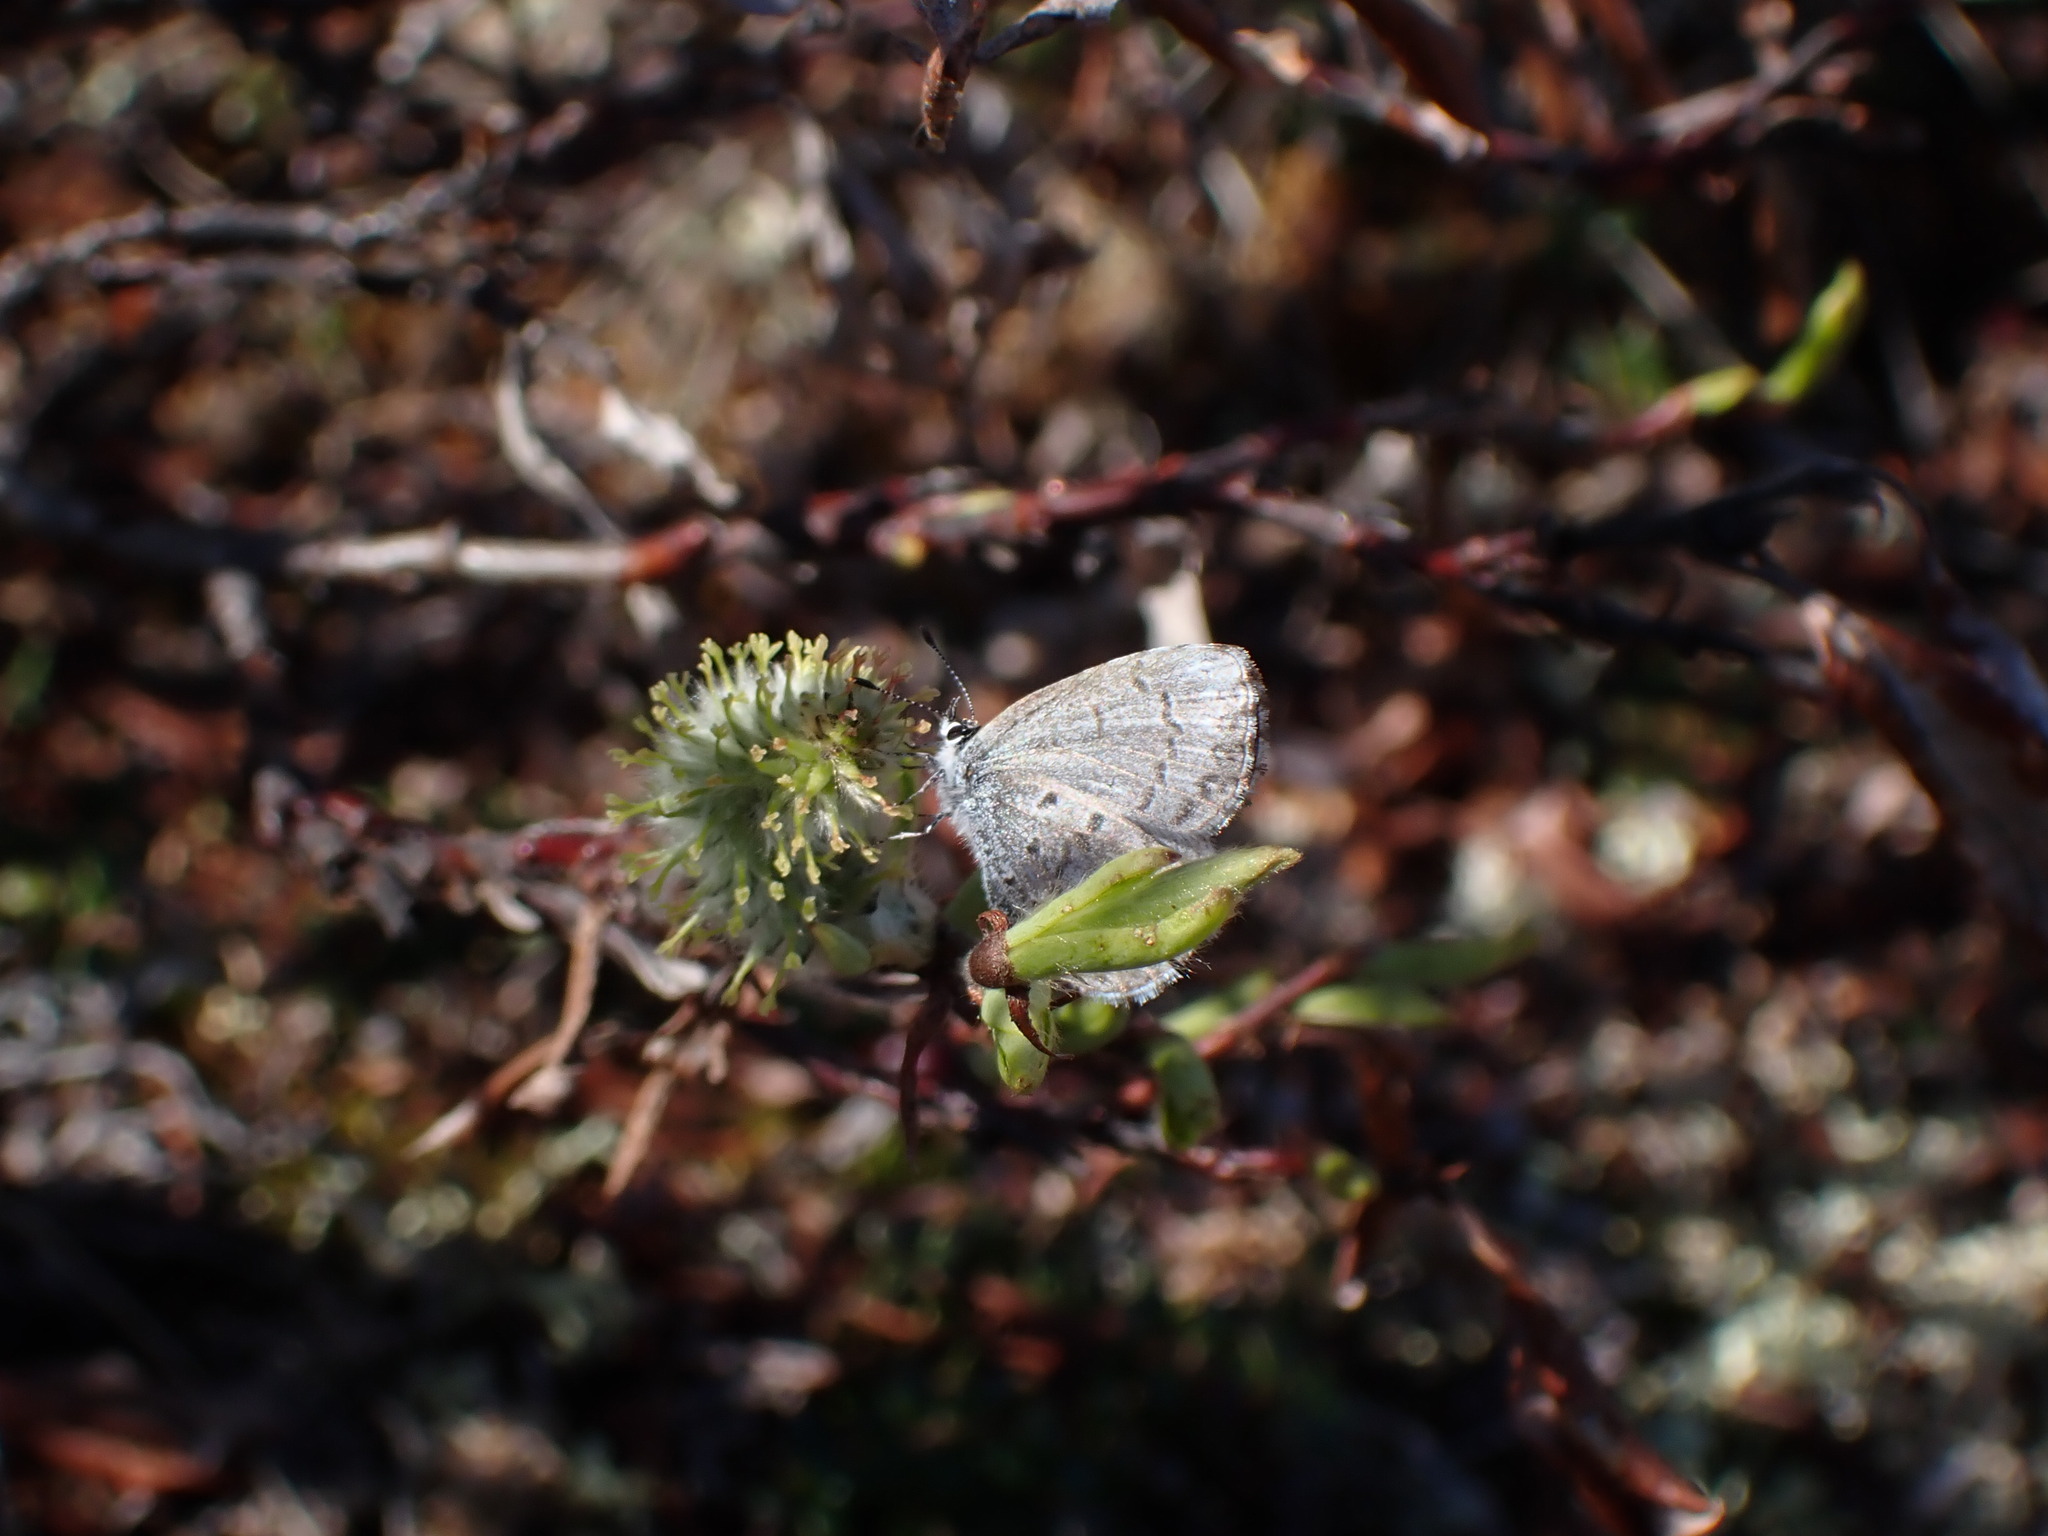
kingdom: Animalia
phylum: Arthropoda
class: Insecta
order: Lepidoptera
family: Lycaenidae
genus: Celastrina
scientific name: Celastrina lucia
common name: Lucia azure
